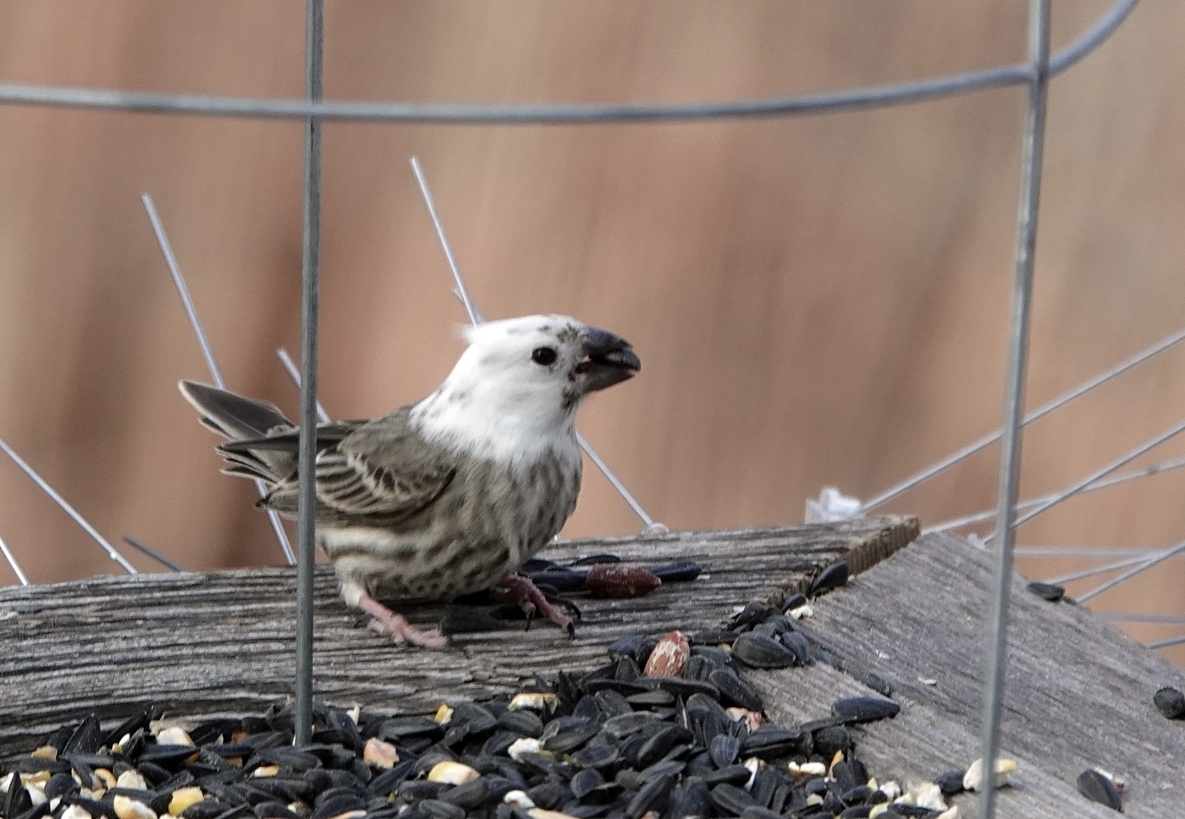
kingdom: Animalia
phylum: Chordata
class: Aves
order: Passeriformes
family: Fringillidae
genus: Haemorhous
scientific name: Haemorhous mexicanus
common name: House finch
